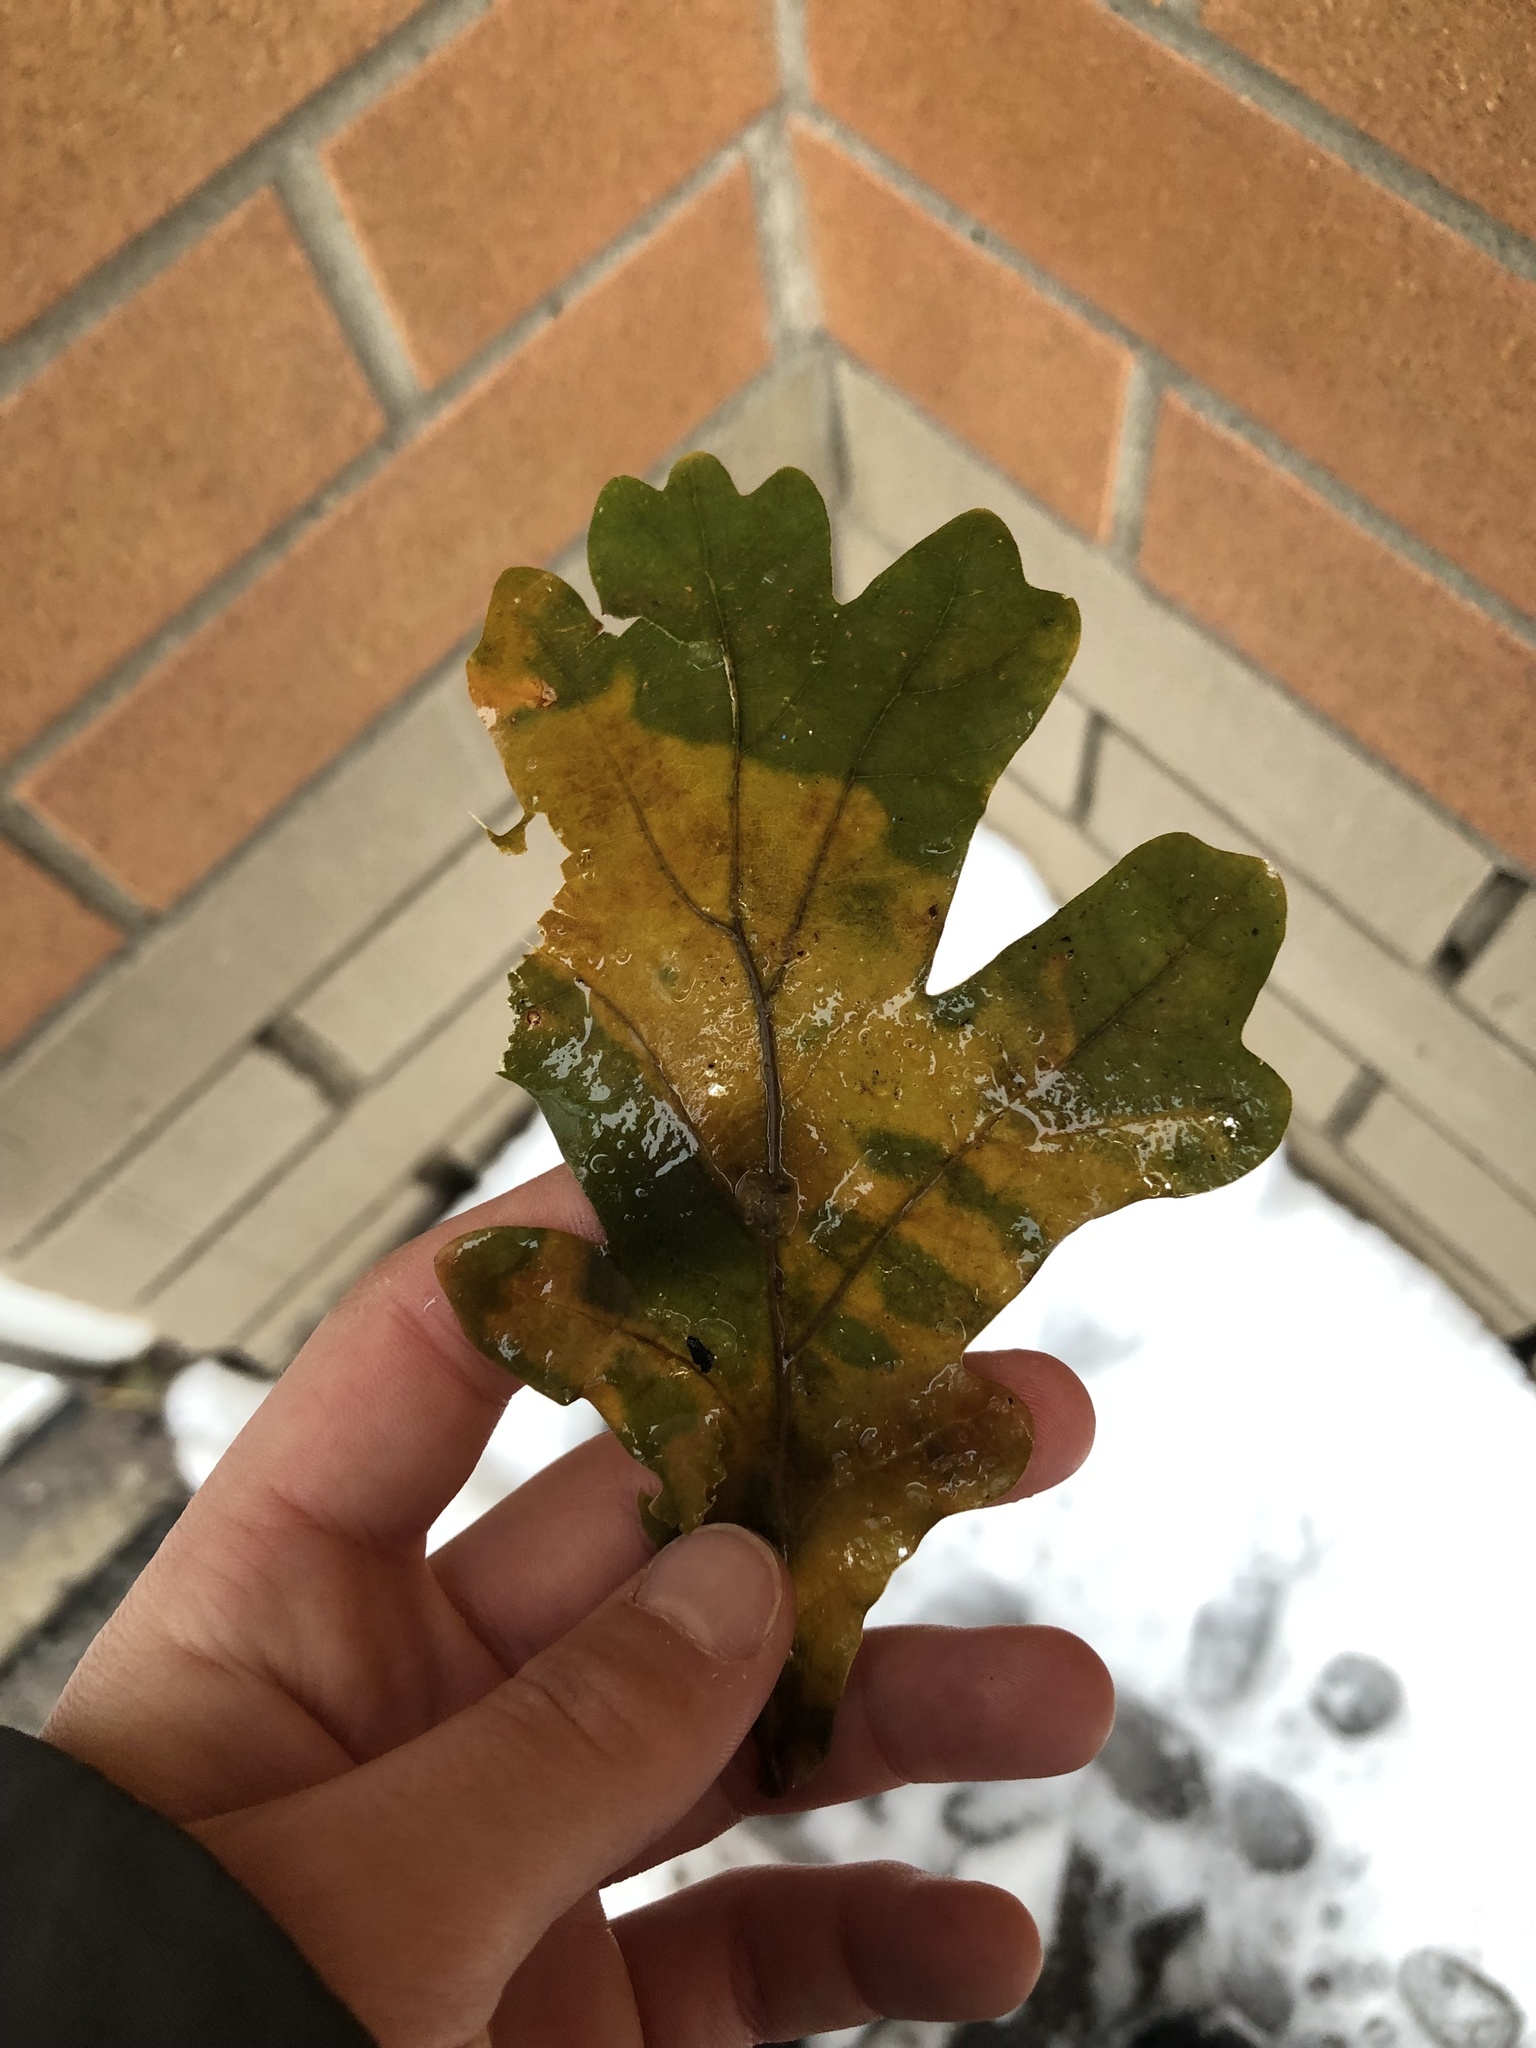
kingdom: Plantae
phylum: Tracheophyta
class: Magnoliopsida
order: Fagales
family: Fagaceae
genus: Quercus
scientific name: Quercus alba
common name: White oak
